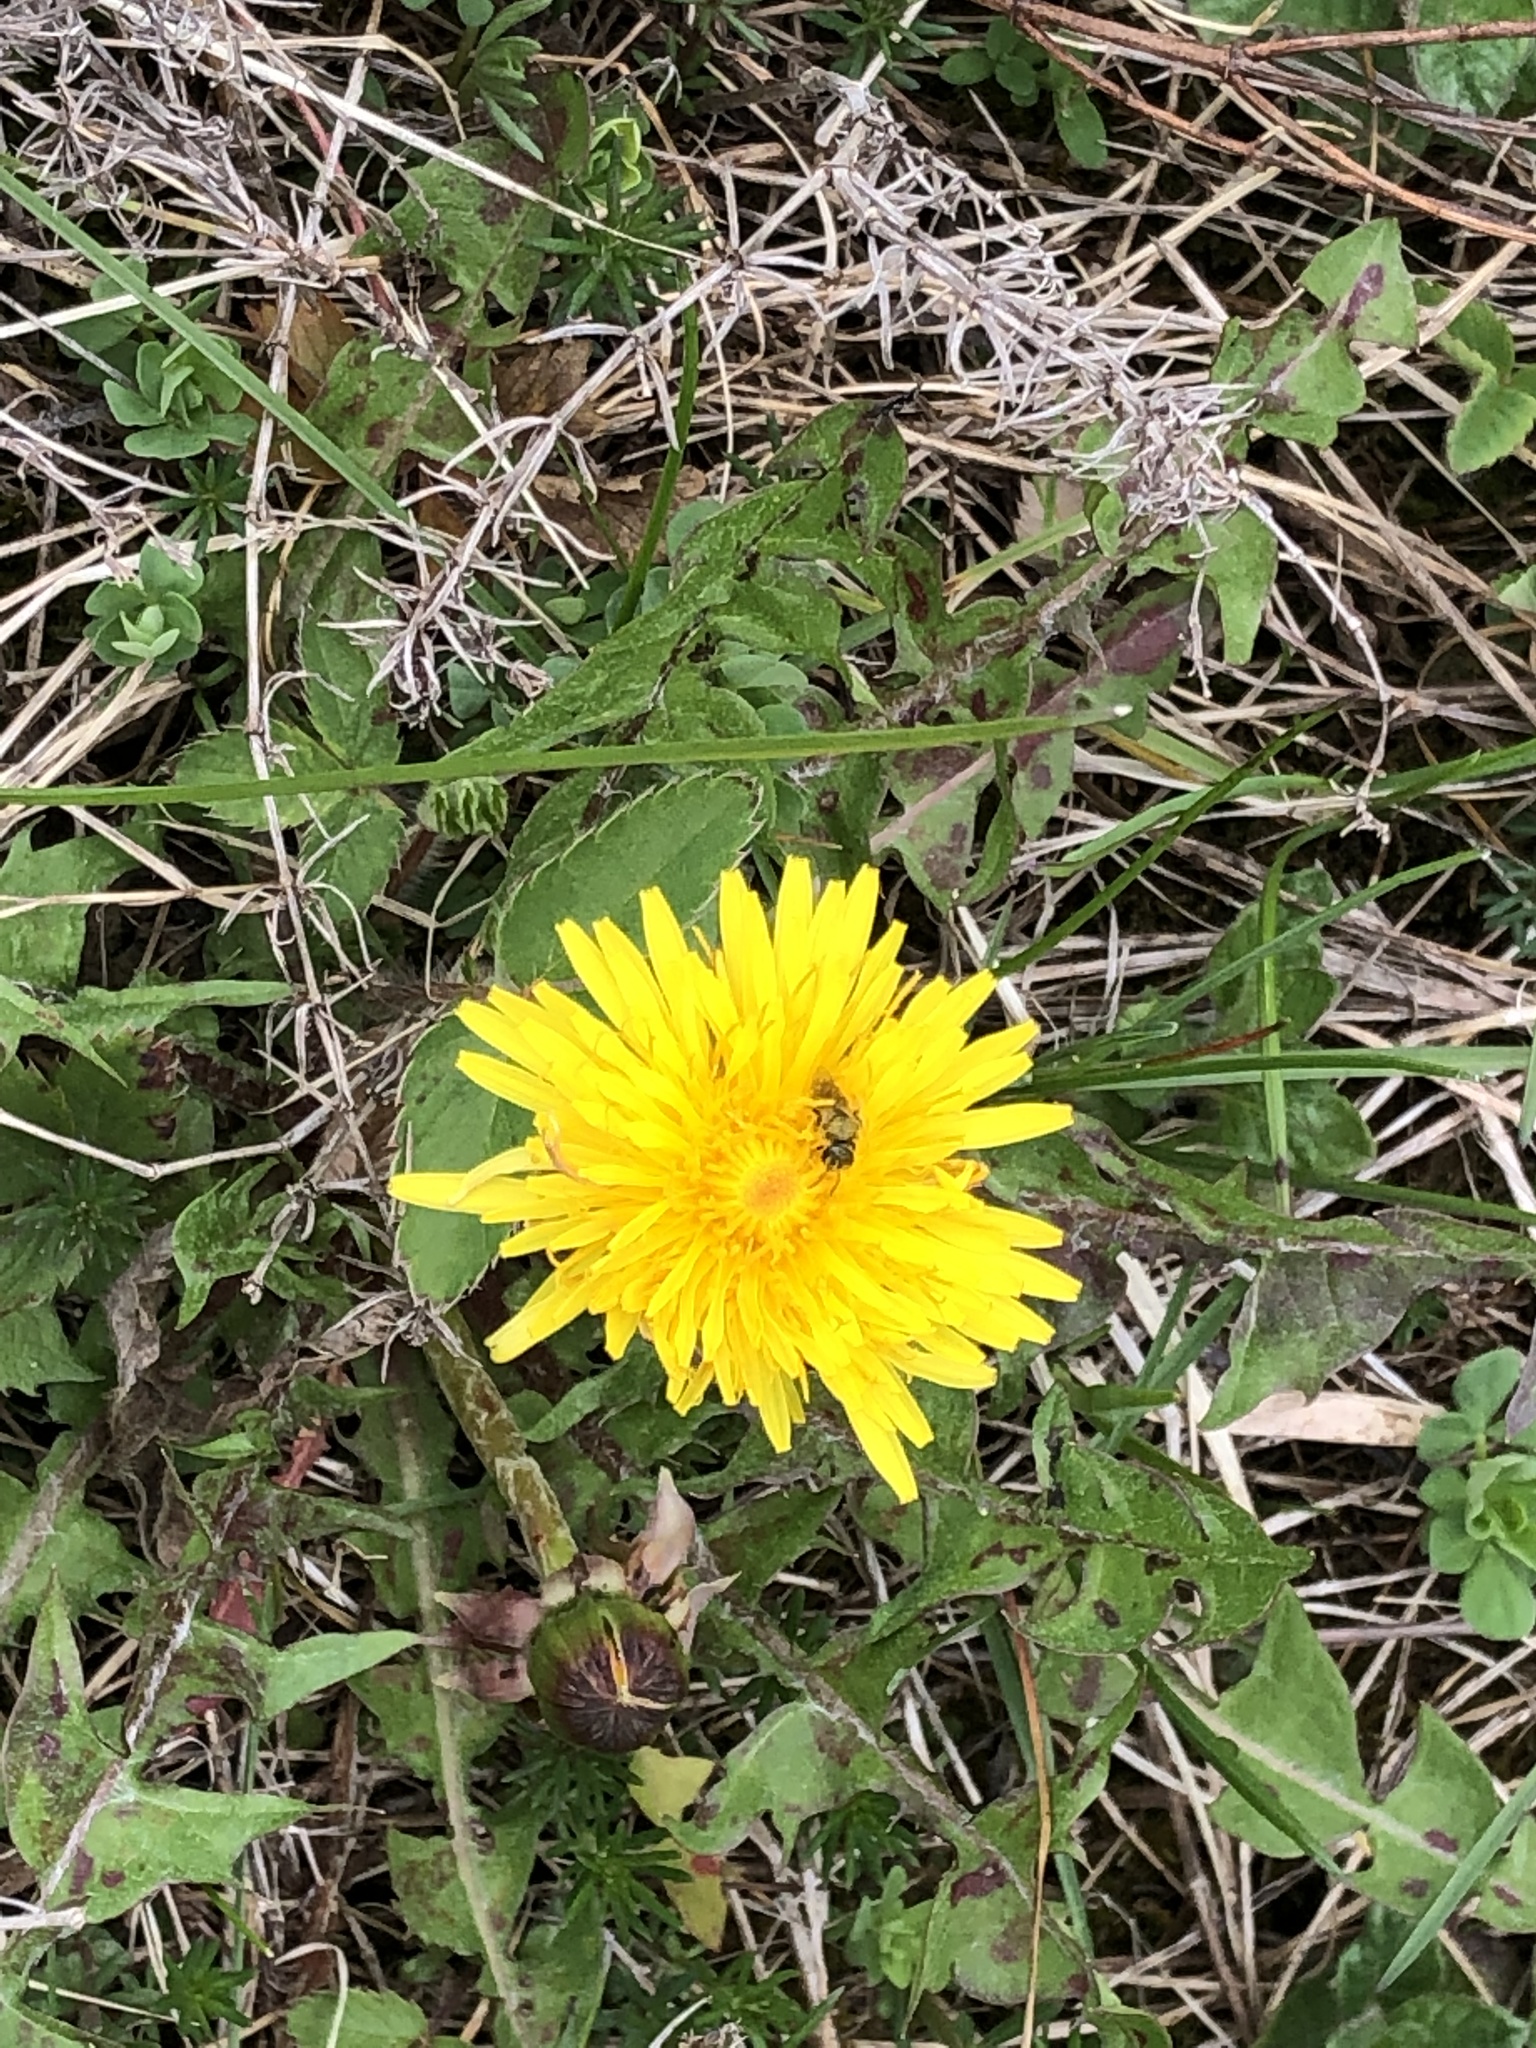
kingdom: Plantae
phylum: Tracheophyta
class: Magnoliopsida
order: Asterales
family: Asteraceae
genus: Taraxacum
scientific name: Taraxacum officinale
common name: Common dandelion
